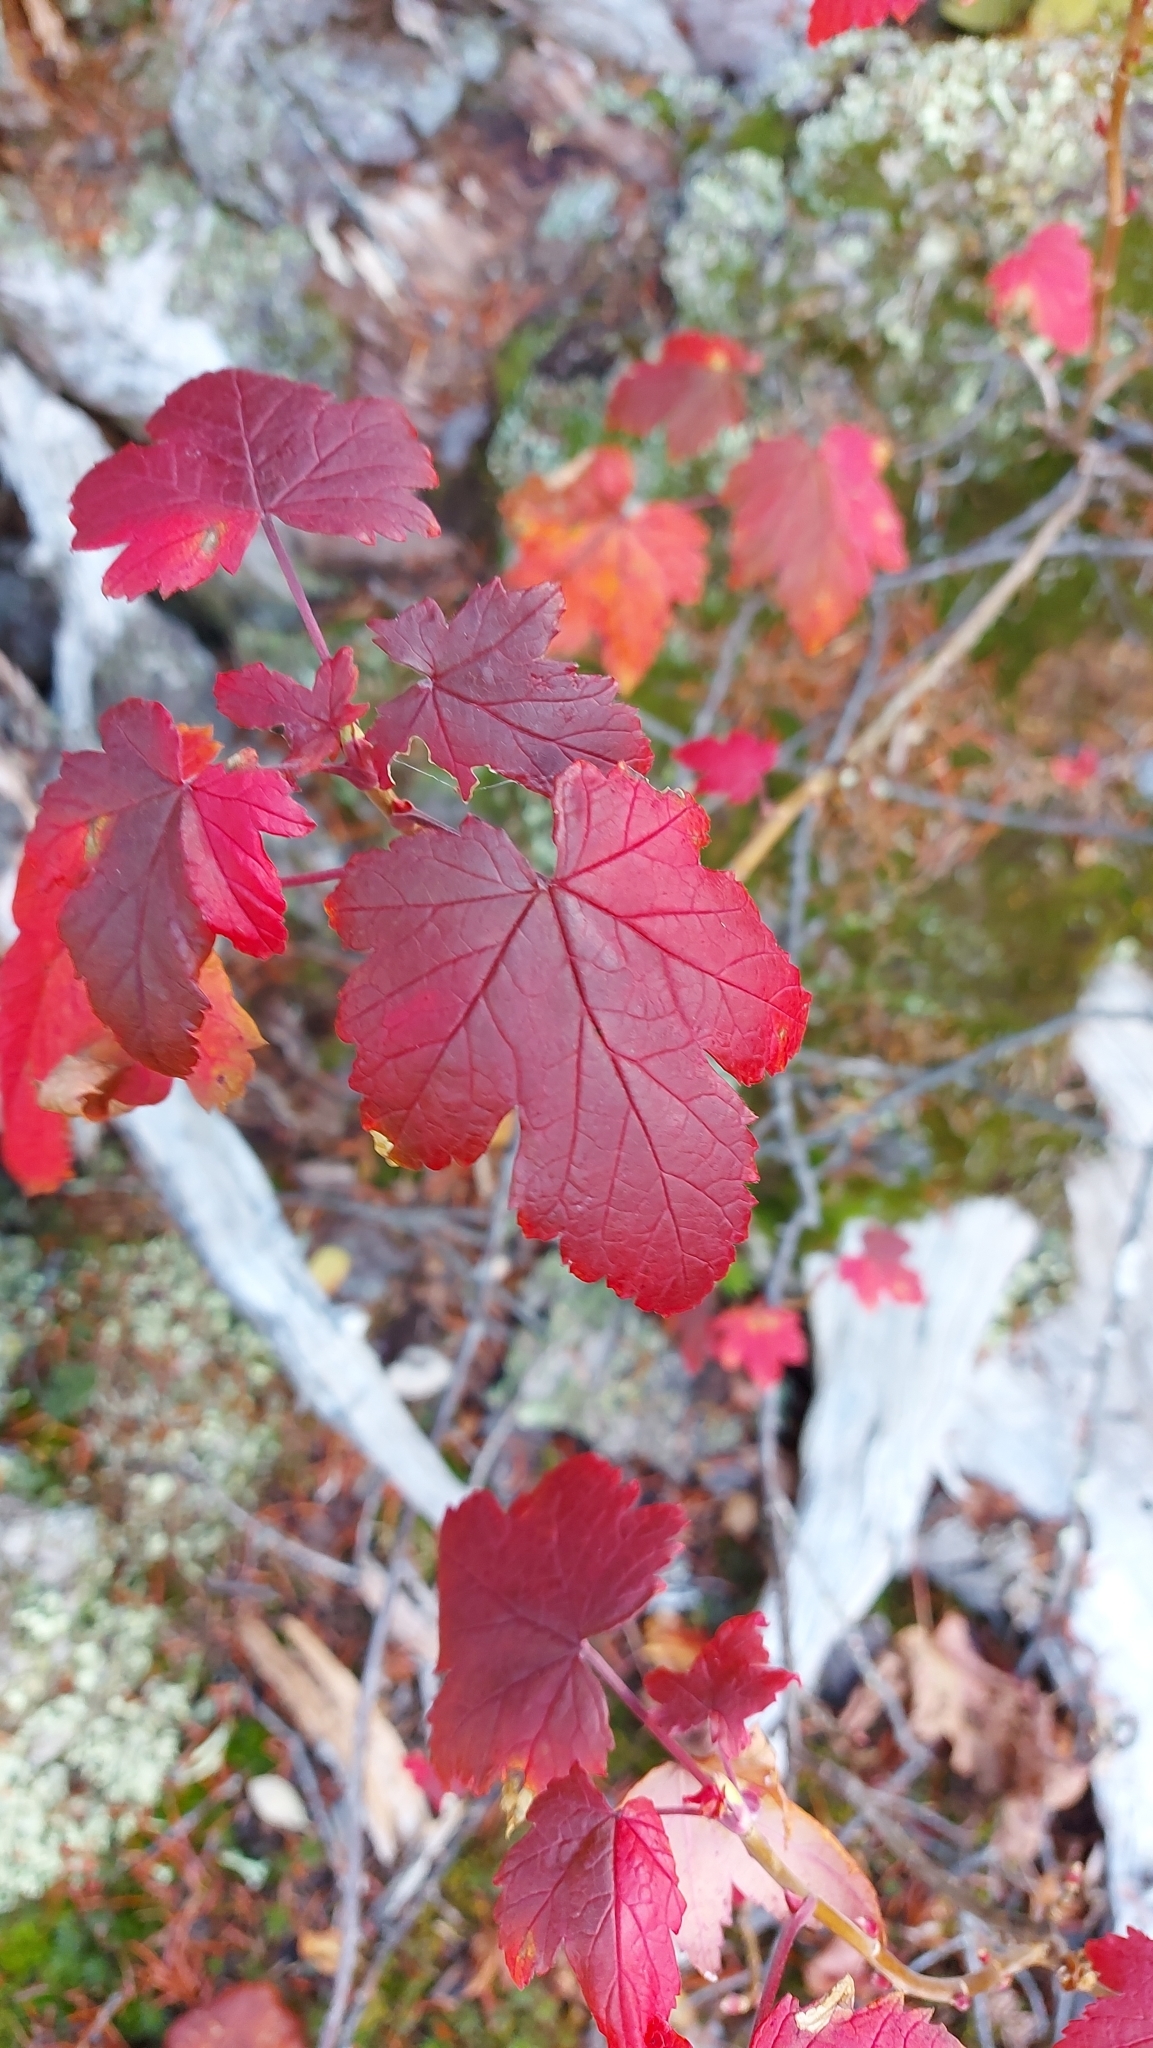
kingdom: Plantae
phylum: Tracheophyta
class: Magnoliopsida
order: Sapindales
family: Sapindaceae
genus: Acer
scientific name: Acer glabrum
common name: Rocky mountain maple
